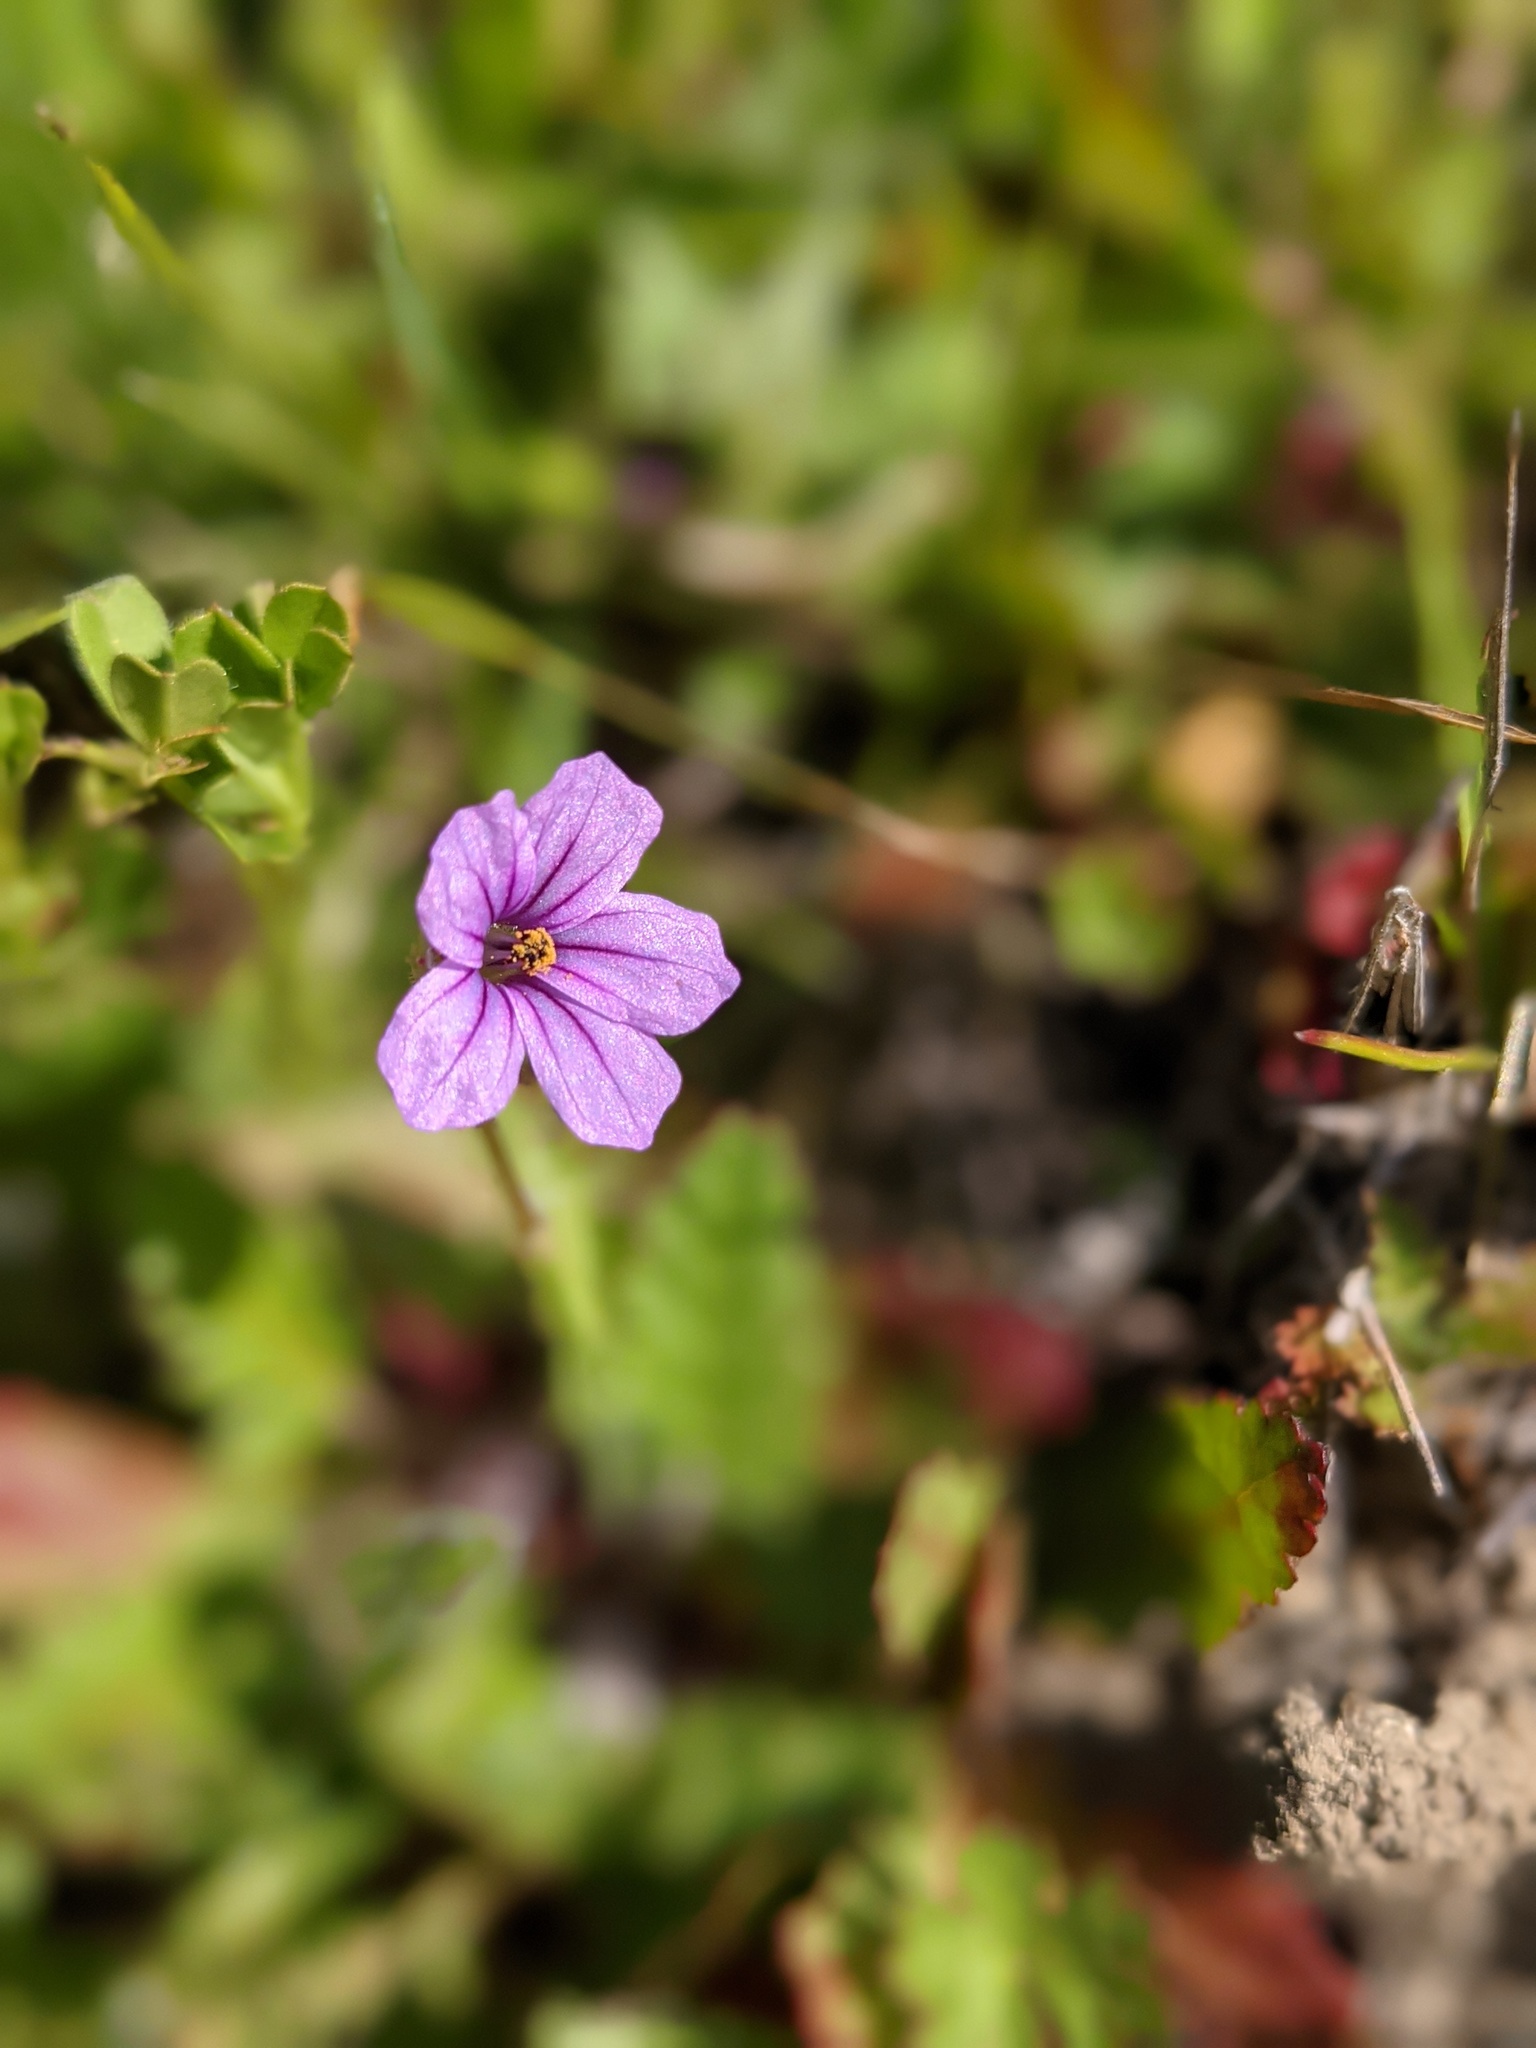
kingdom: Plantae
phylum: Tracheophyta
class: Magnoliopsida
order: Geraniales
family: Geraniaceae
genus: Erodium
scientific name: Erodium botrys
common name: Mediterranean stork's-bill
